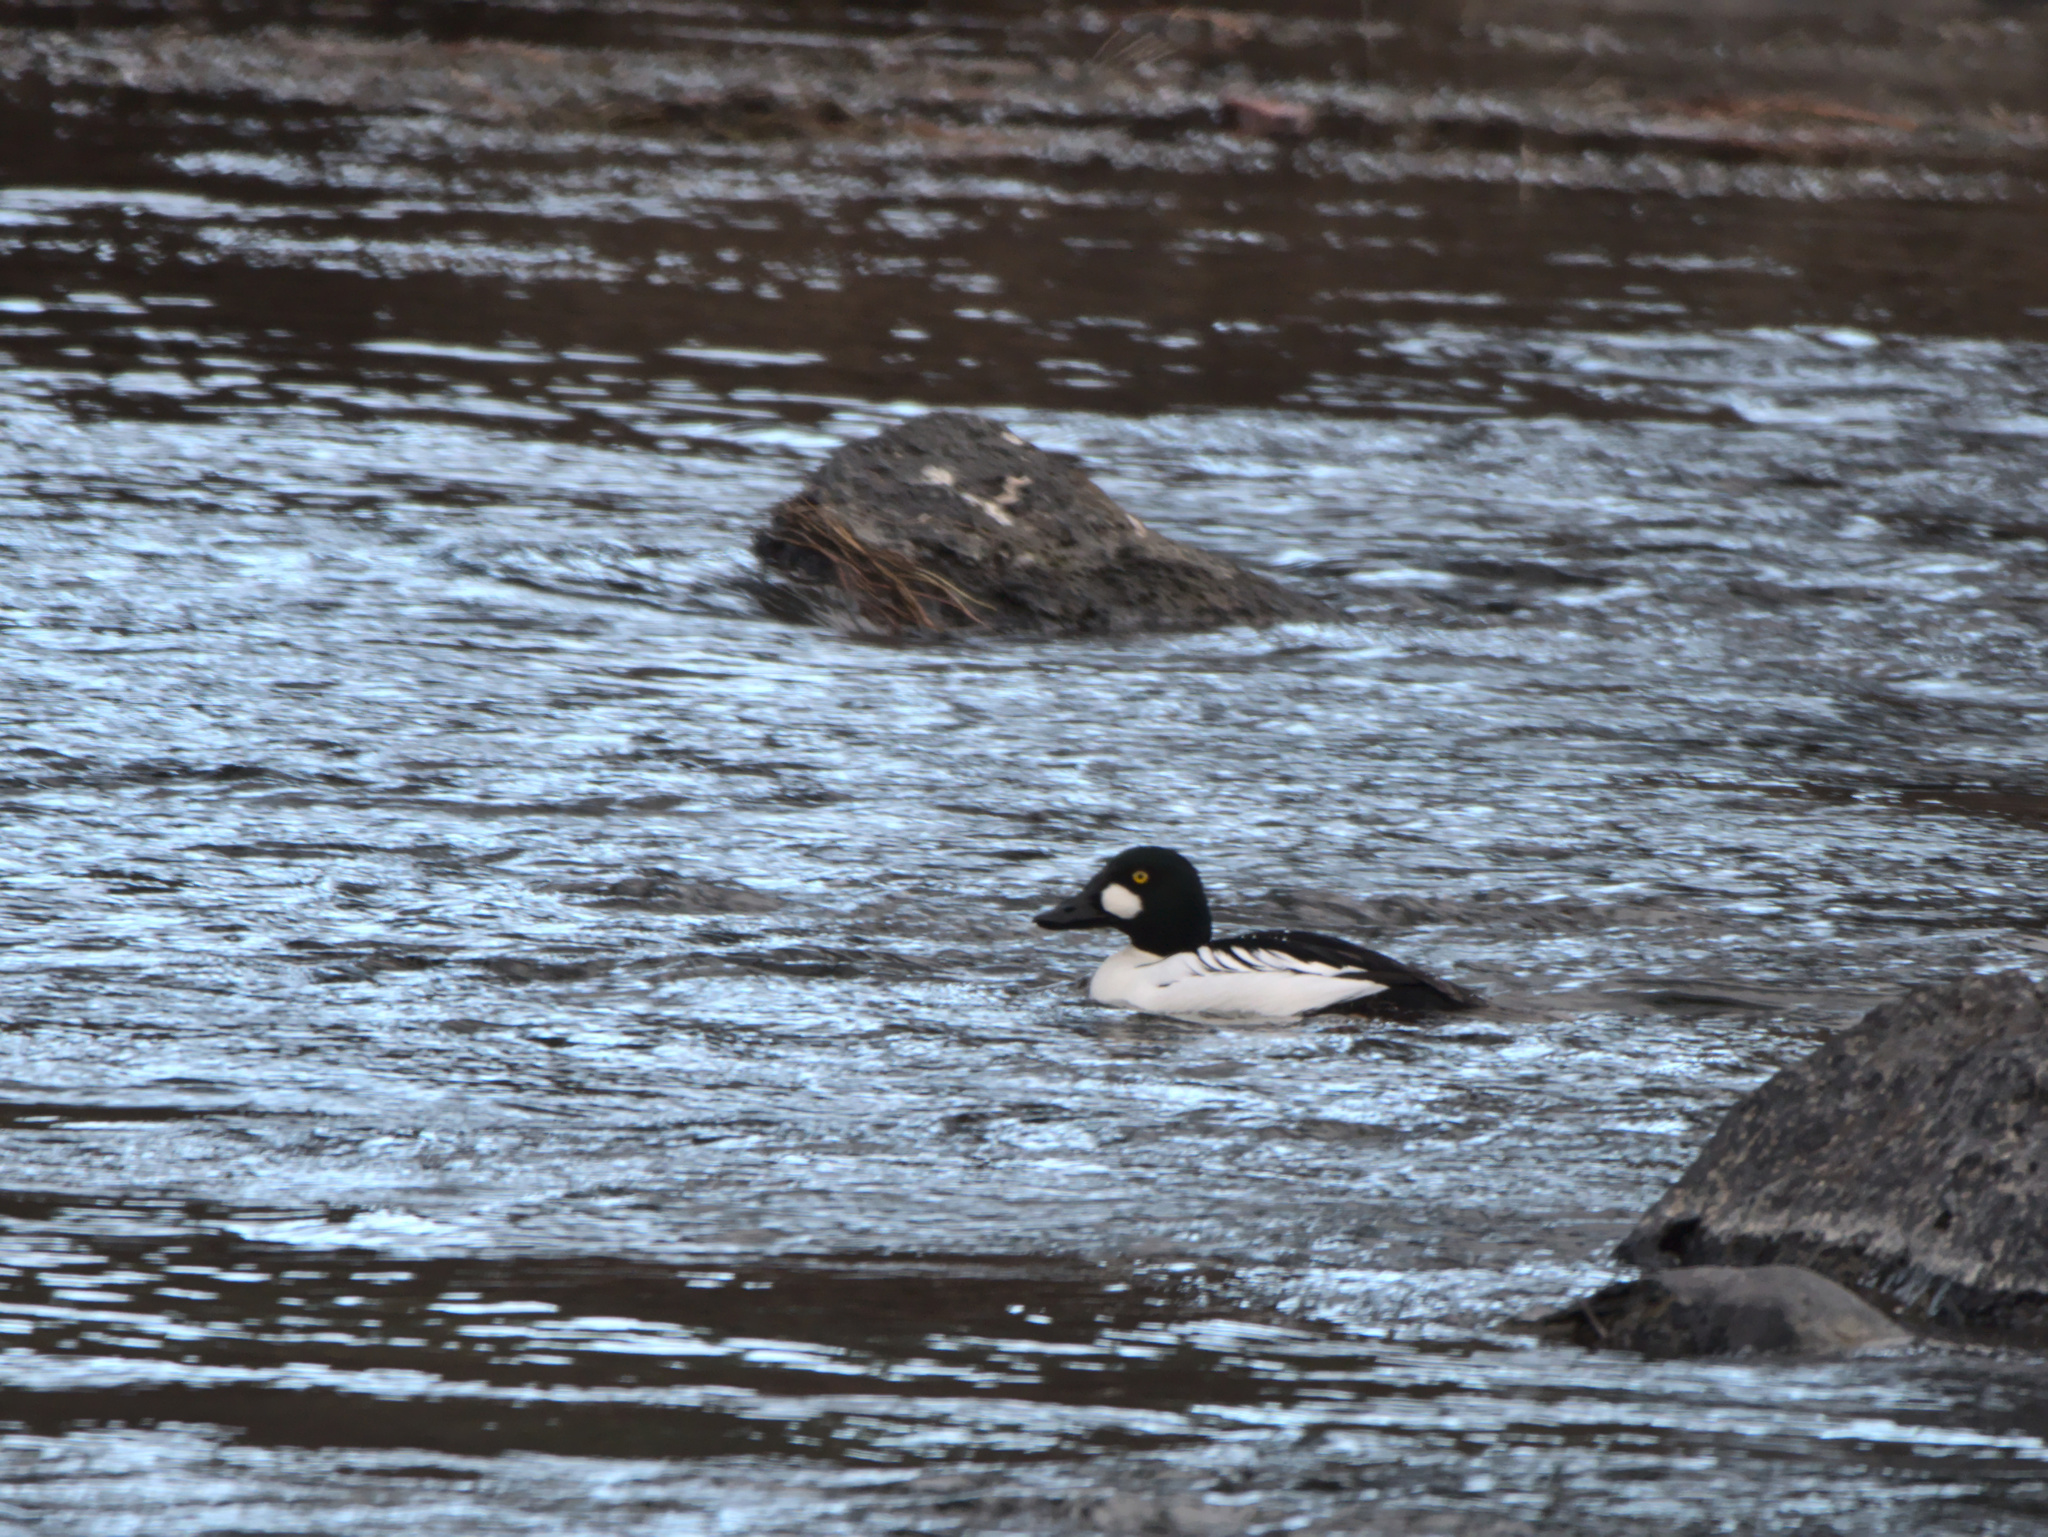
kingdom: Animalia
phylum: Chordata
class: Aves
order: Anseriformes
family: Anatidae
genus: Bucephala
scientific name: Bucephala clangula
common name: Common goldeneye
